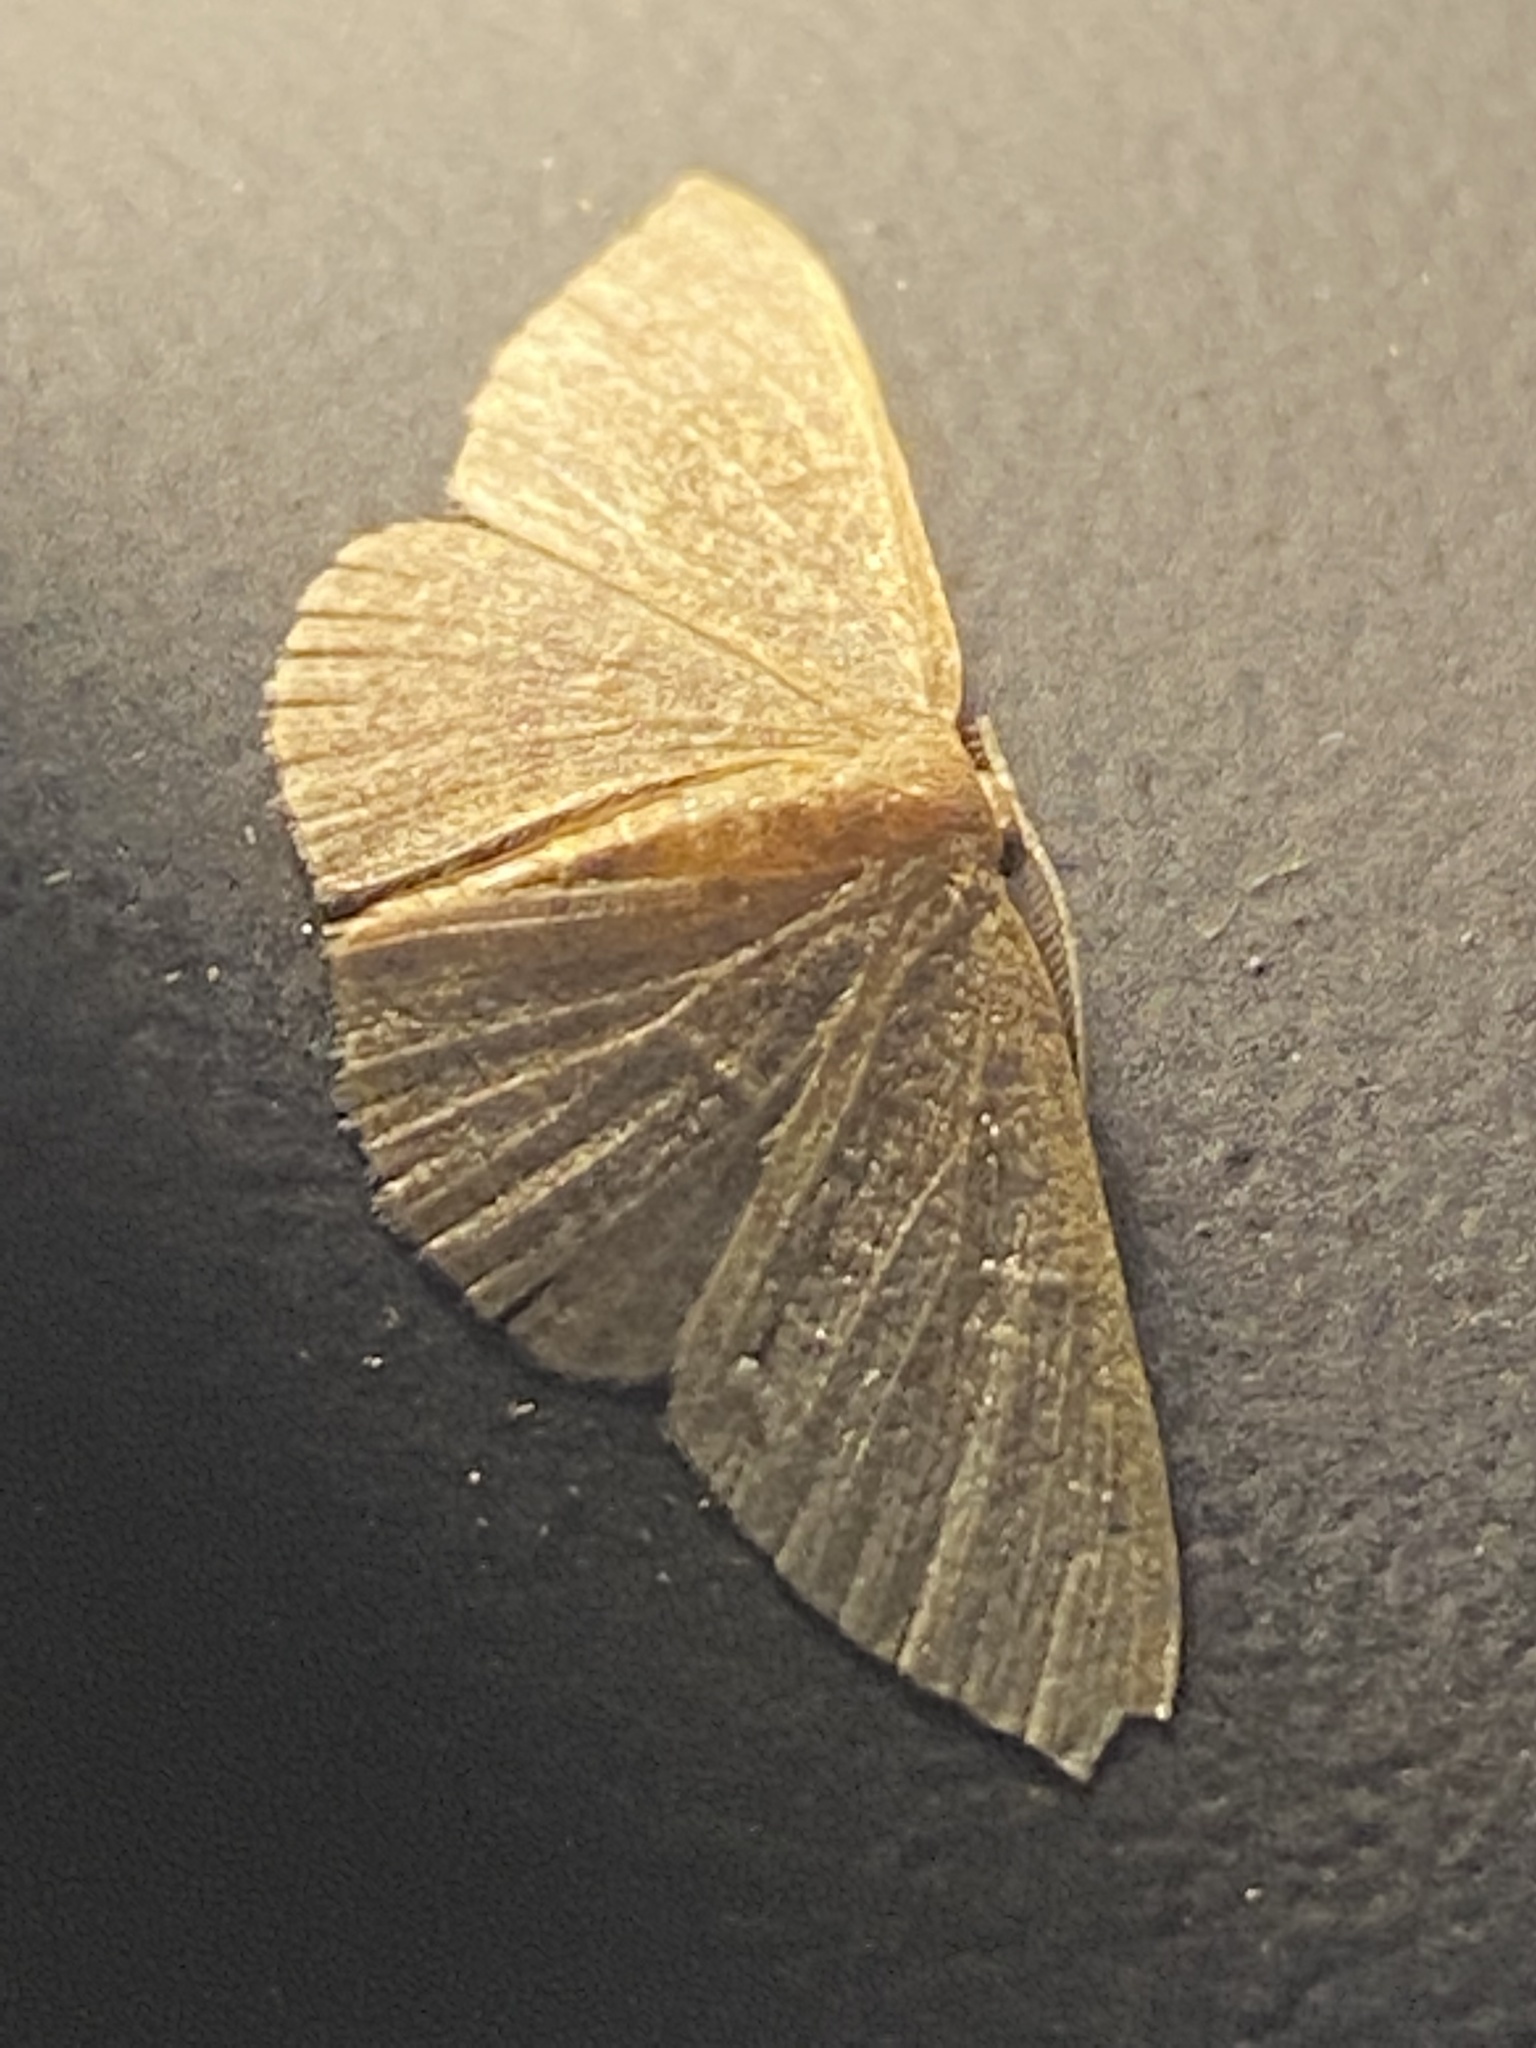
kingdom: Animalia
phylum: Arthropoda
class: Insecta
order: Lepidoptera
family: Geometridae
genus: Pleuroprucha
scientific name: Pleuroprucha insulsaria
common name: Common tan wave
